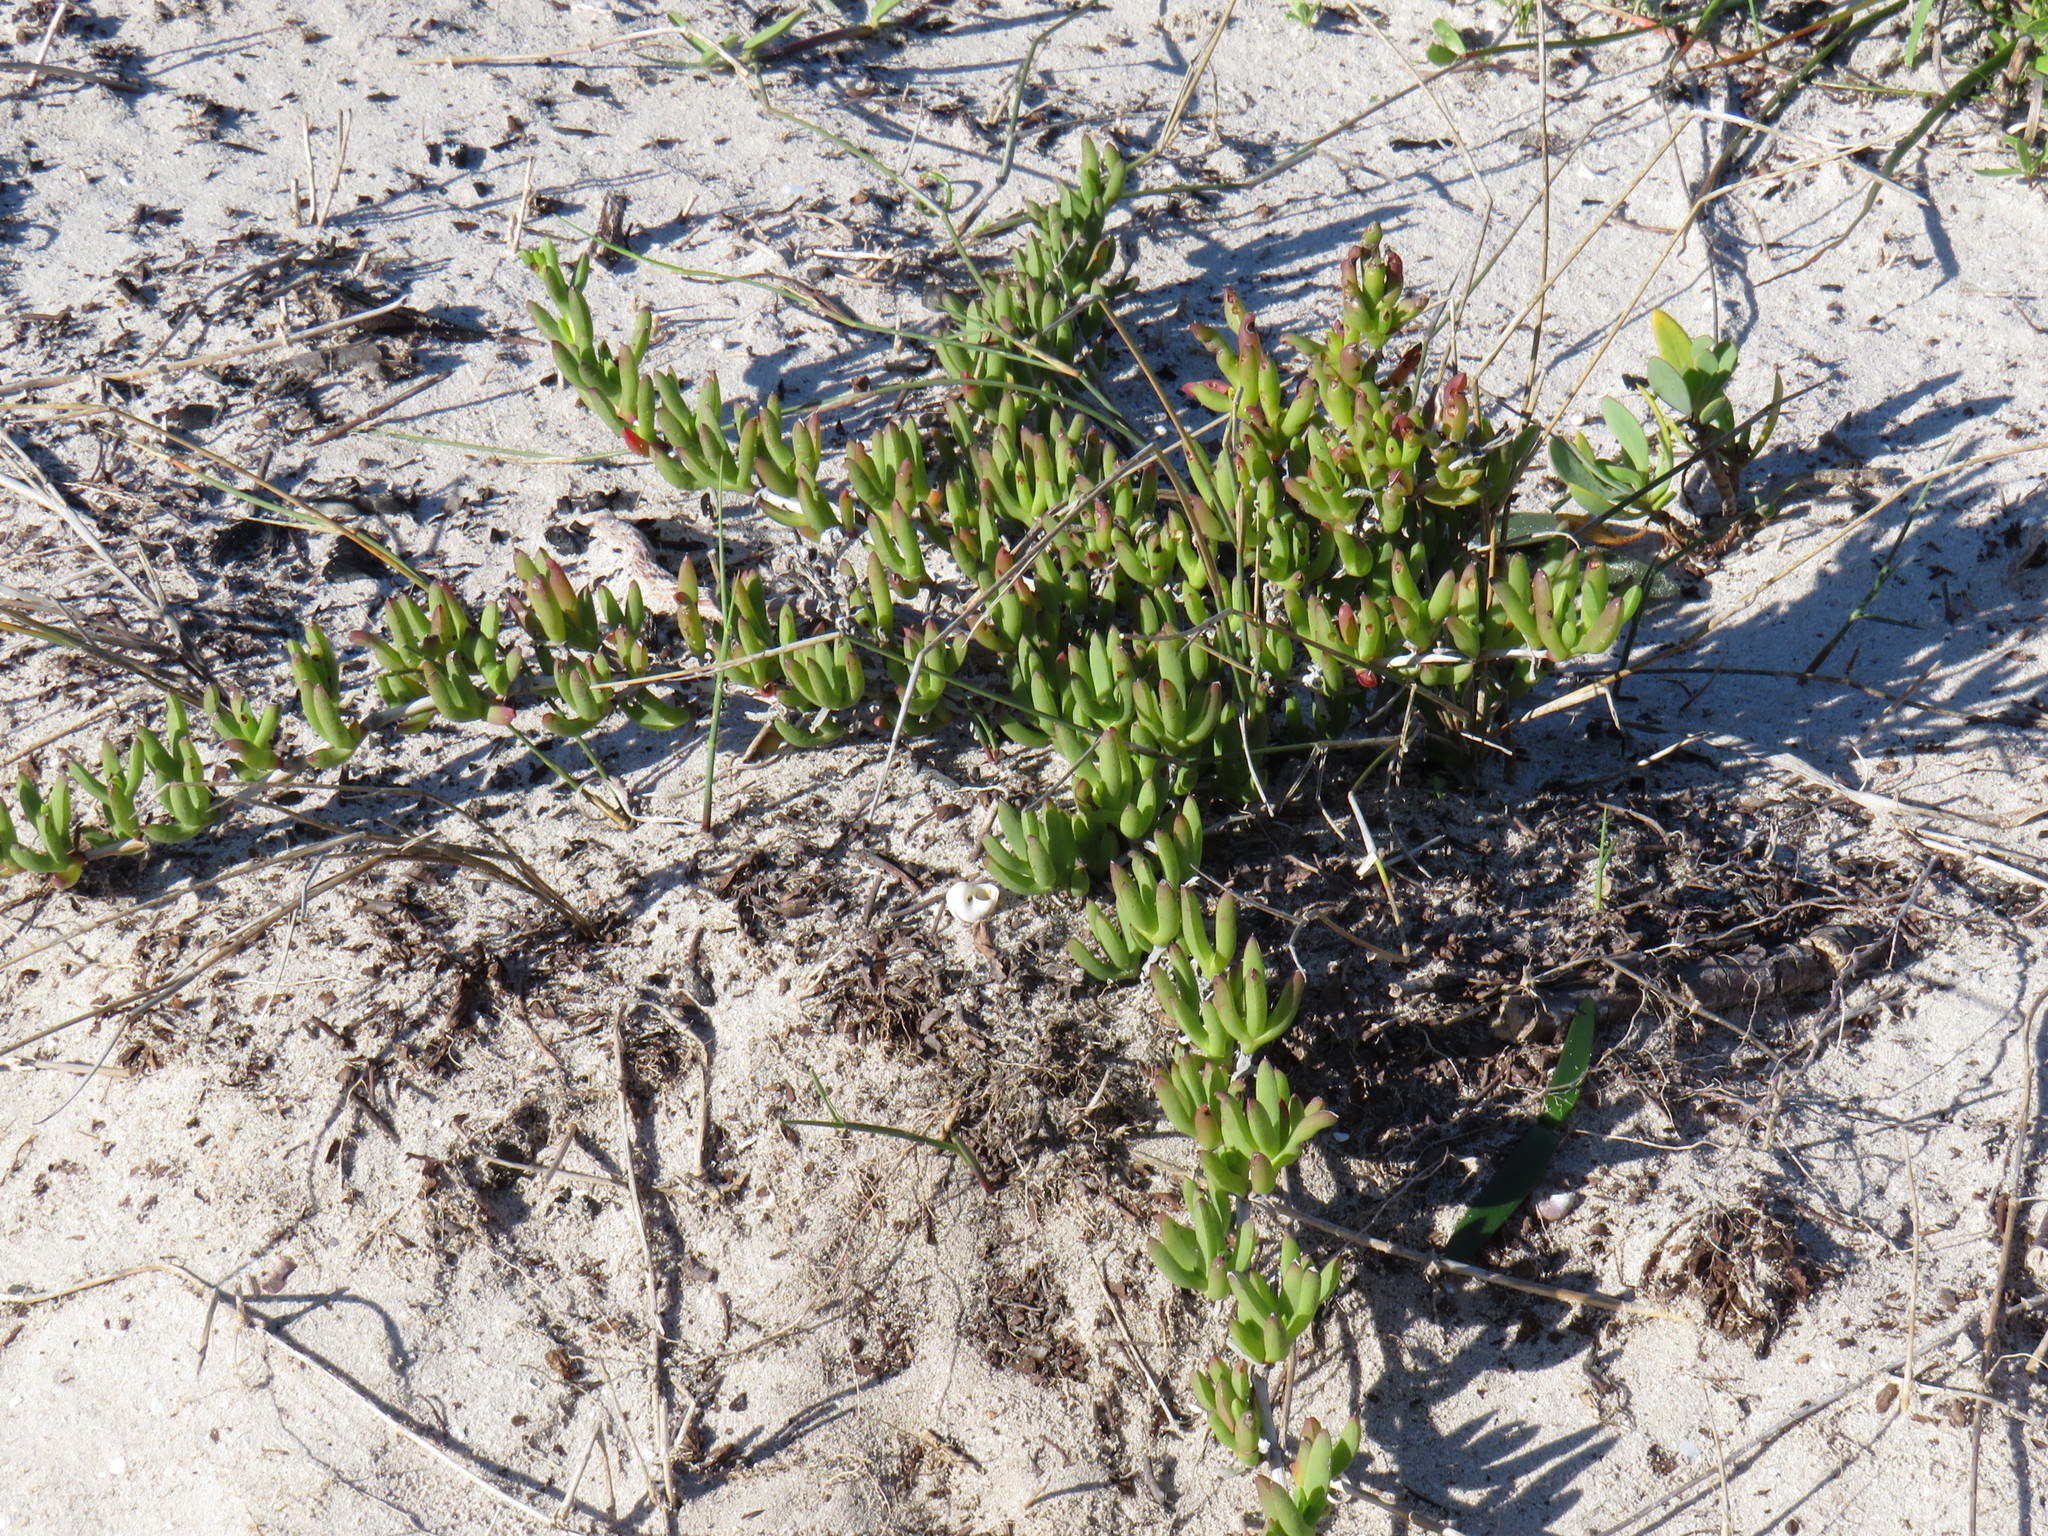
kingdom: Plantae
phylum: Tracheophyta
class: Magnoliopsida
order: Caryophyllales
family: Aizoaceae
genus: Ruschia
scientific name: Ruschia sarmentosa
